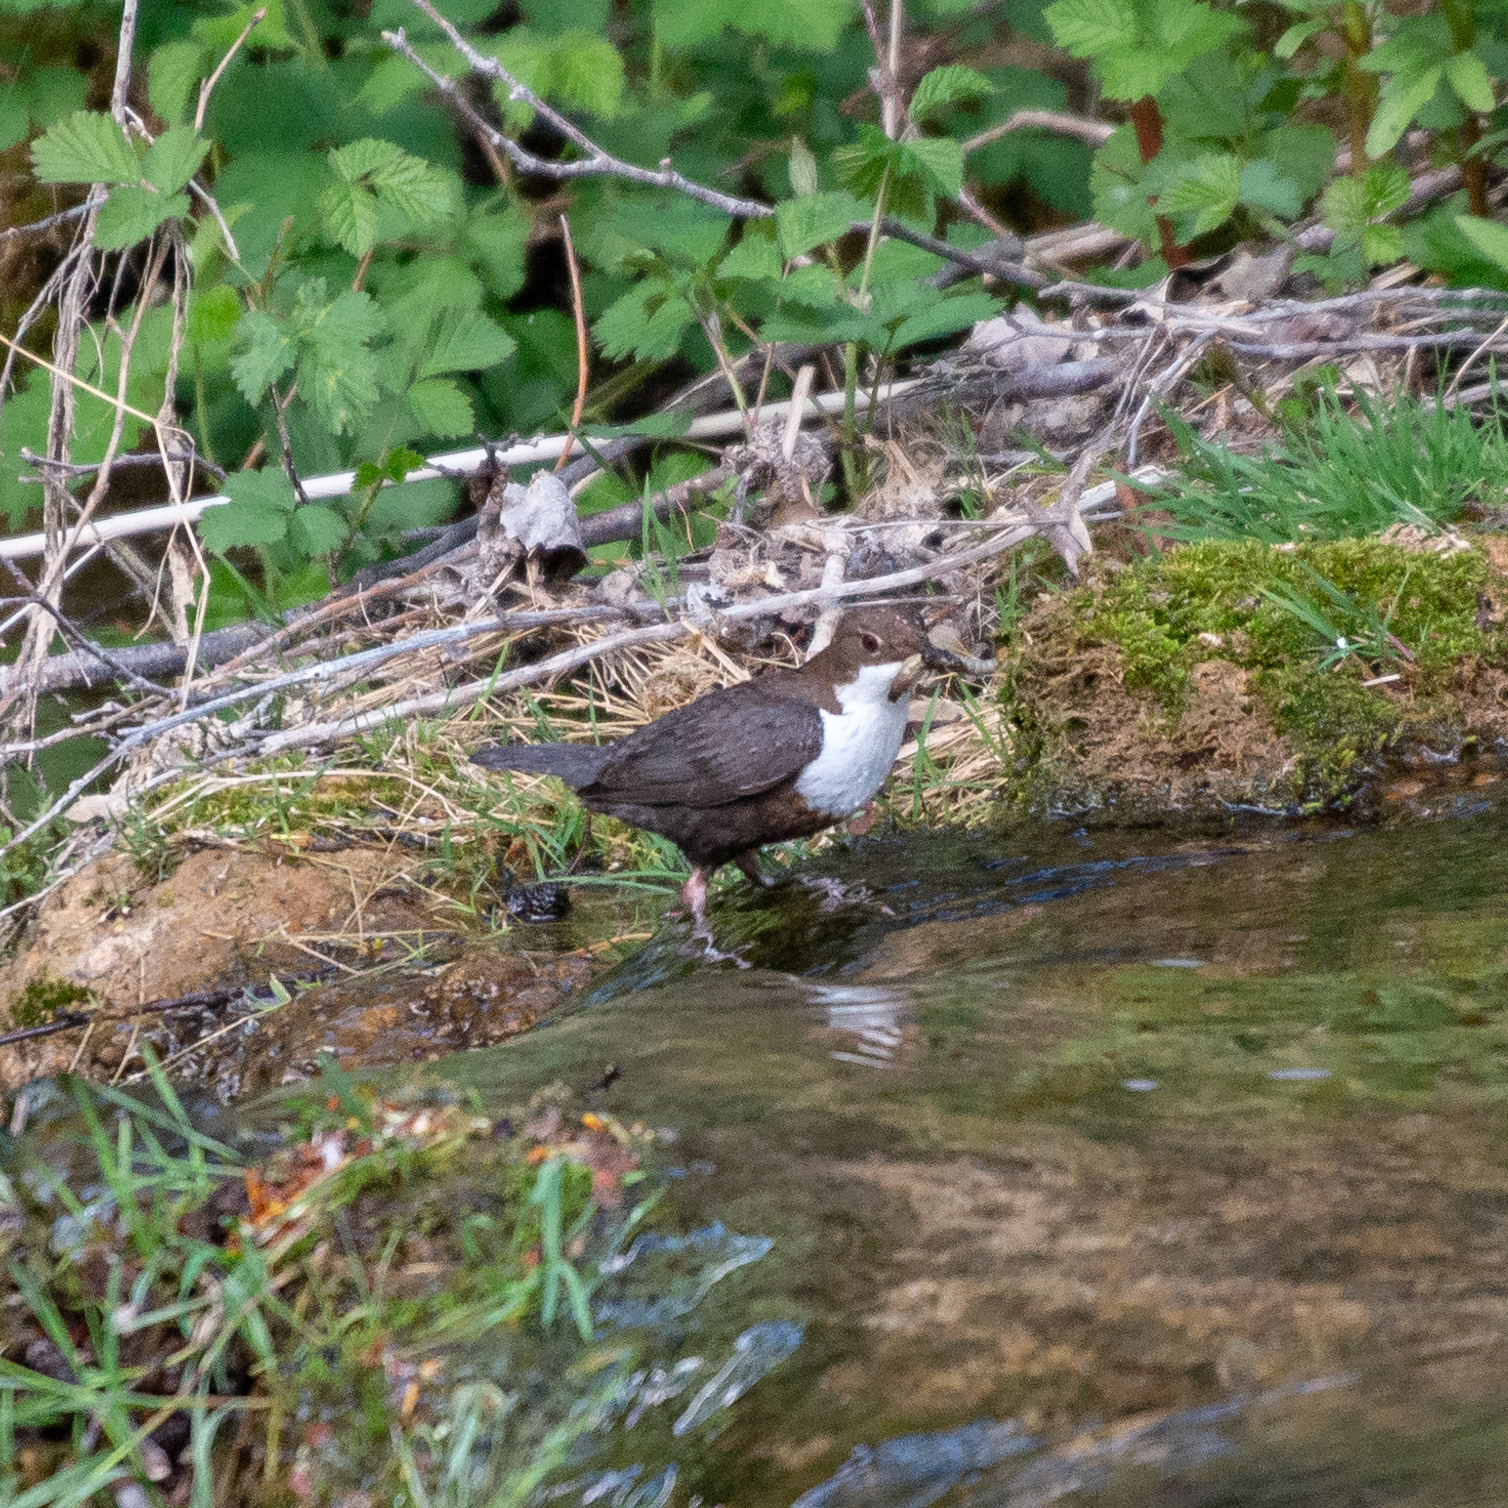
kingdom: Animalia
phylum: Chordata
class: Aves
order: Passeriformes
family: Cinclidae
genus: Cinclus
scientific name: Cinclus cinclus
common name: White-throated dipper
